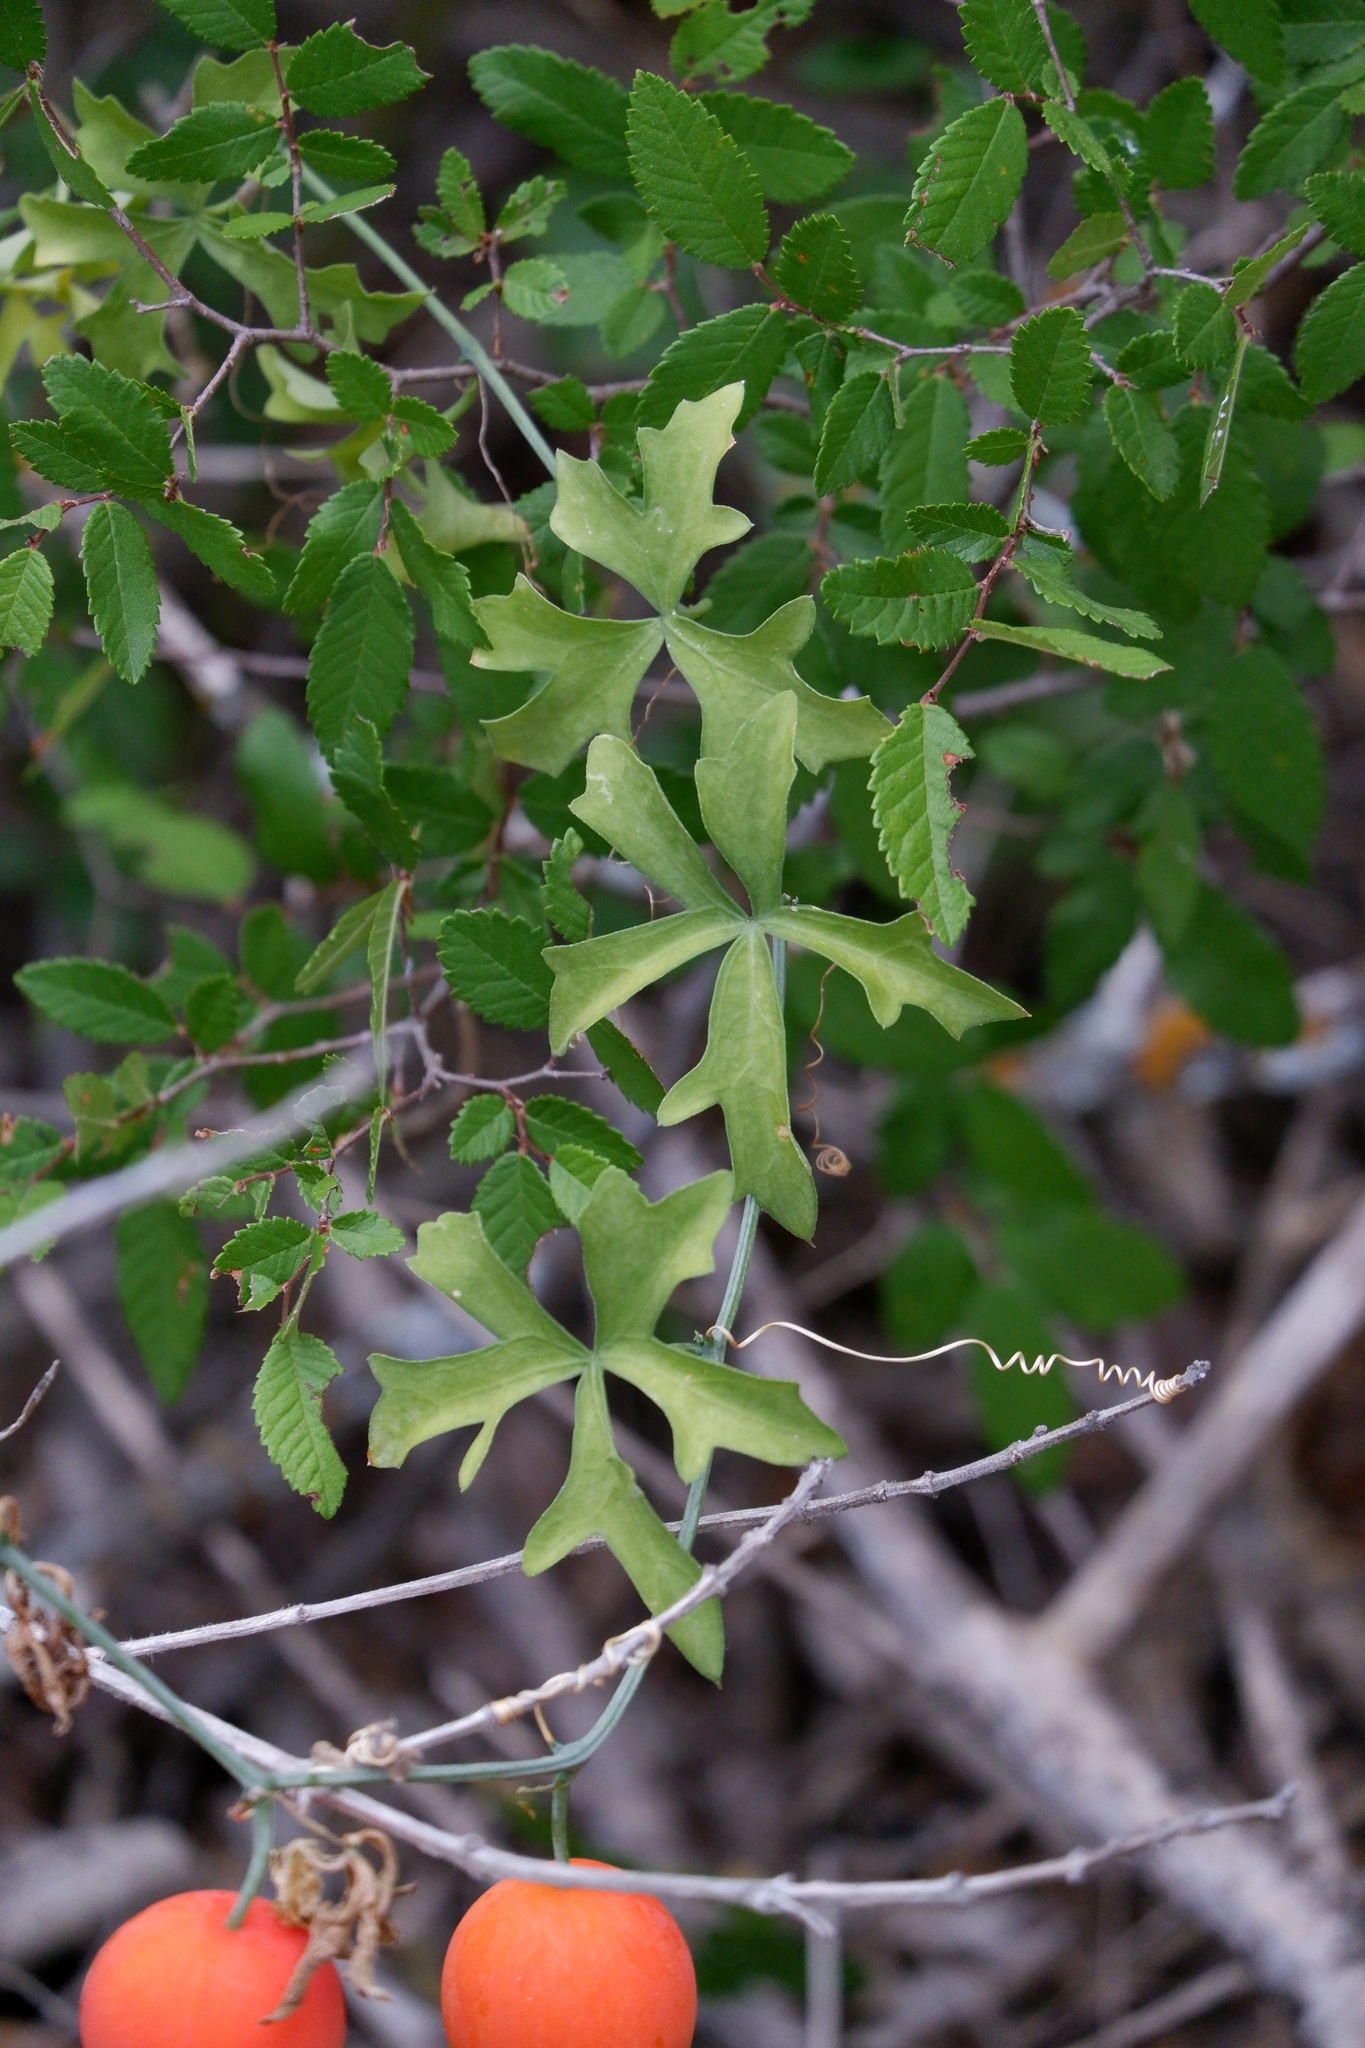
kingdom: Plantae
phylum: Tracheophyta
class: Magnoliopsida
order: Cucurbitales
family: Cucurbitaceae
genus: Ibervillea
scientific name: Ibervillea lindheimeri
